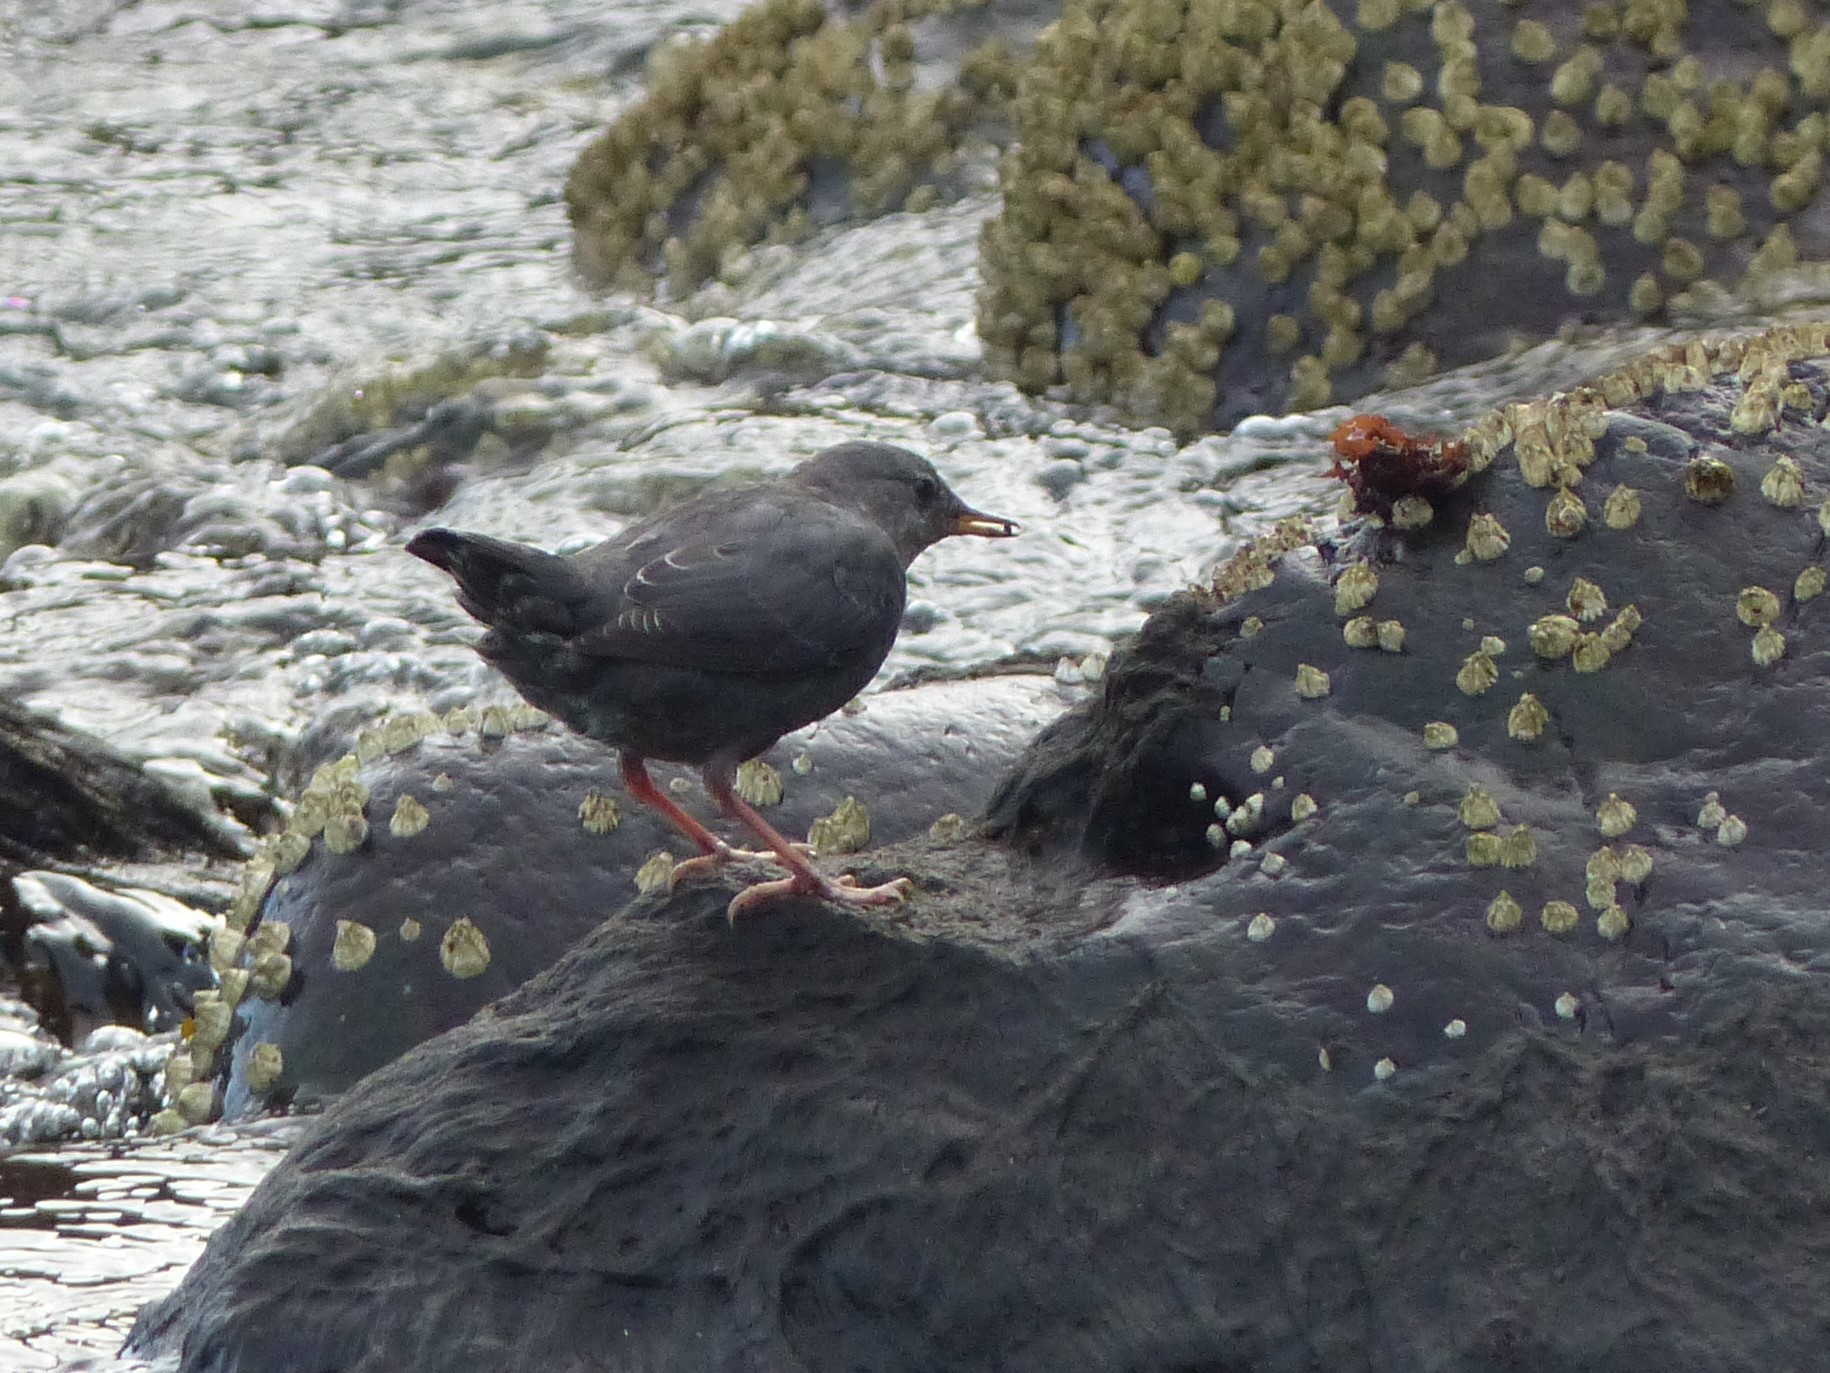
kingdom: Animalia
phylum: Chordata
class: Aves
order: Passeriformes
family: Cinclidae
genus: Cinclus
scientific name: Cinclus mexicanus
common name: American dipper
